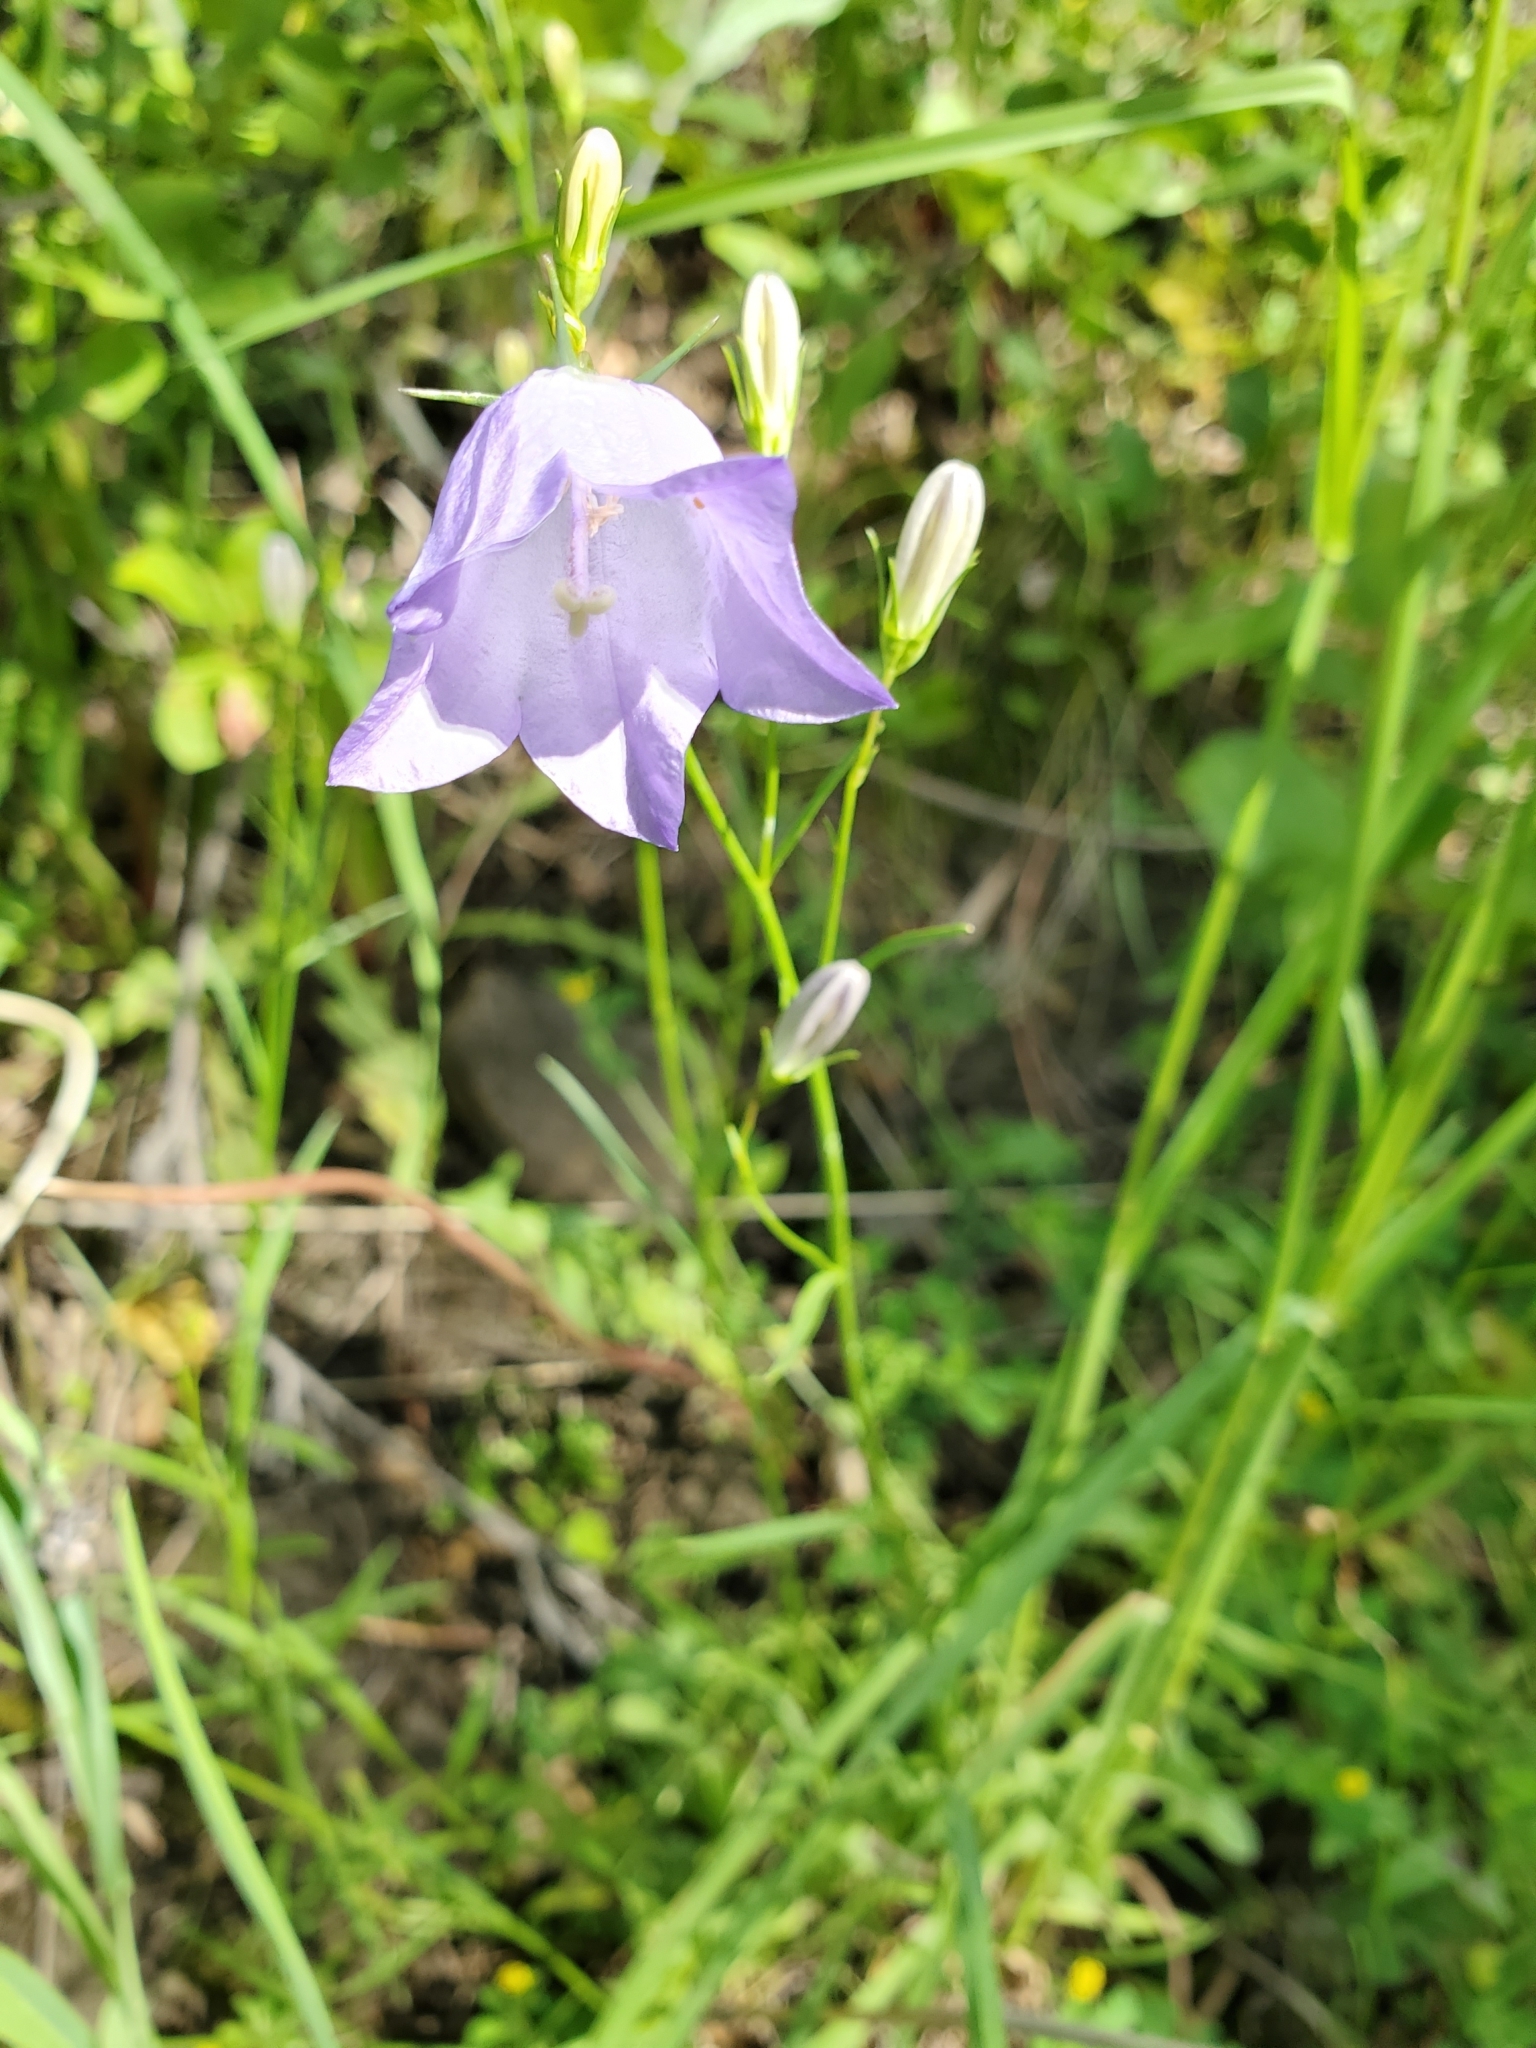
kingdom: Plantae
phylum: Tracheophyta
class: Magnoliopsida
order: Asterales
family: Campanulaceae
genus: Campanula
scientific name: Campanula petiolata
